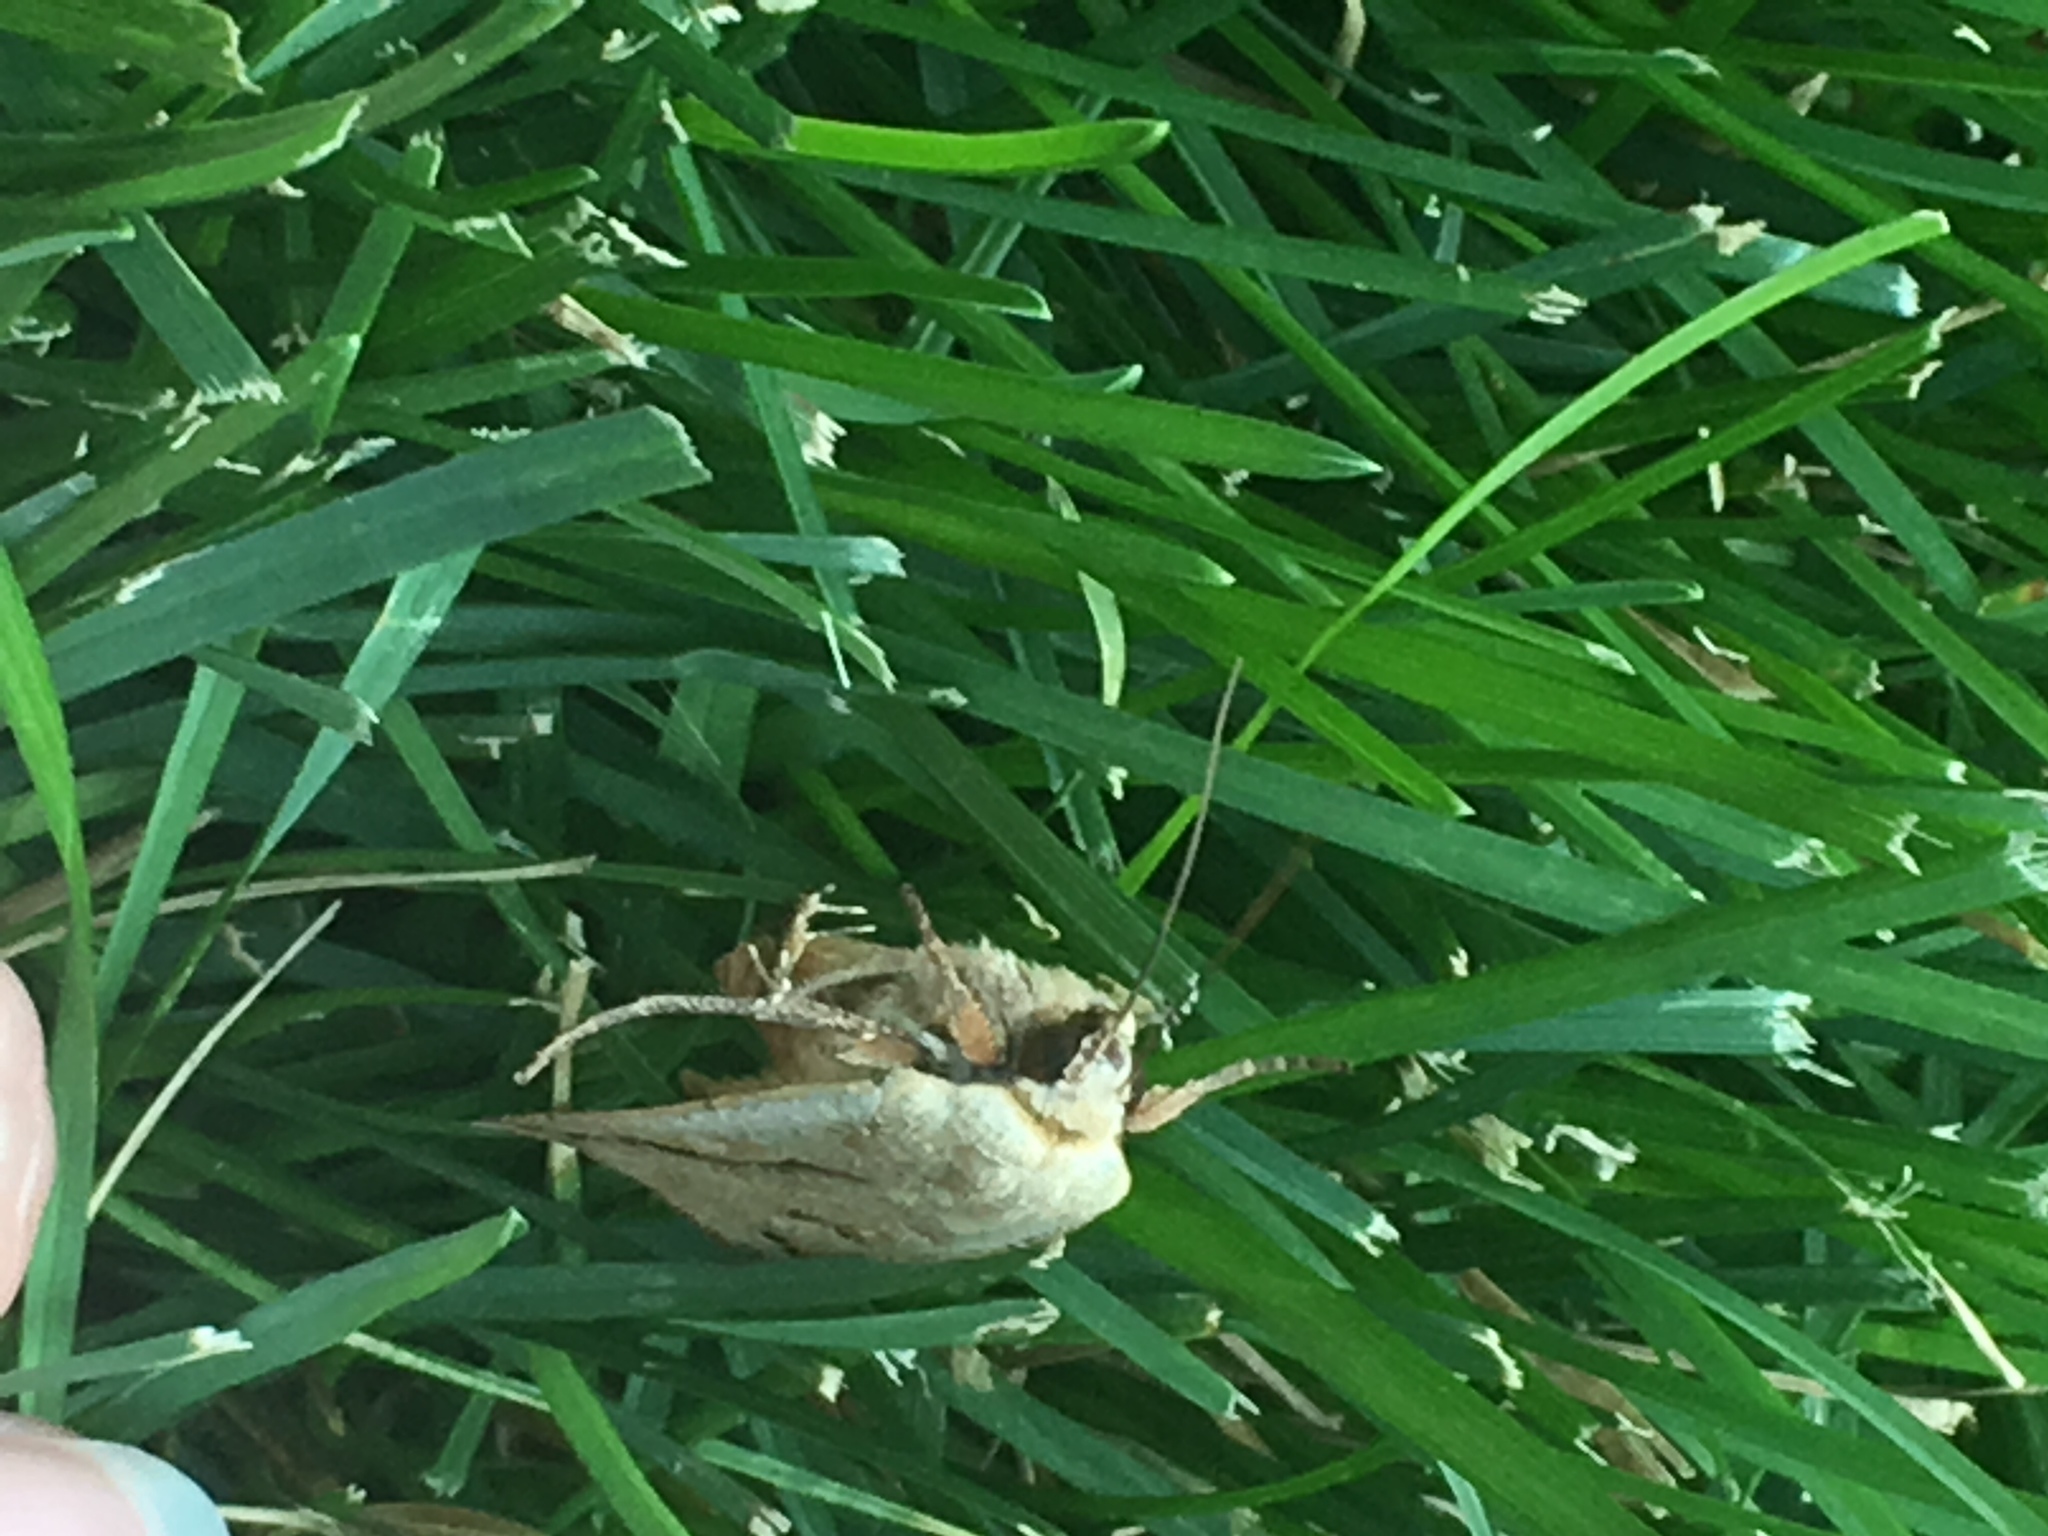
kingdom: Animalia
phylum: Arthropoda
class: Insecta
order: Lepidoptera
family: Noctuidae
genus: Noctua
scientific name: Noctua pronuba
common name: Large yellow underwing
